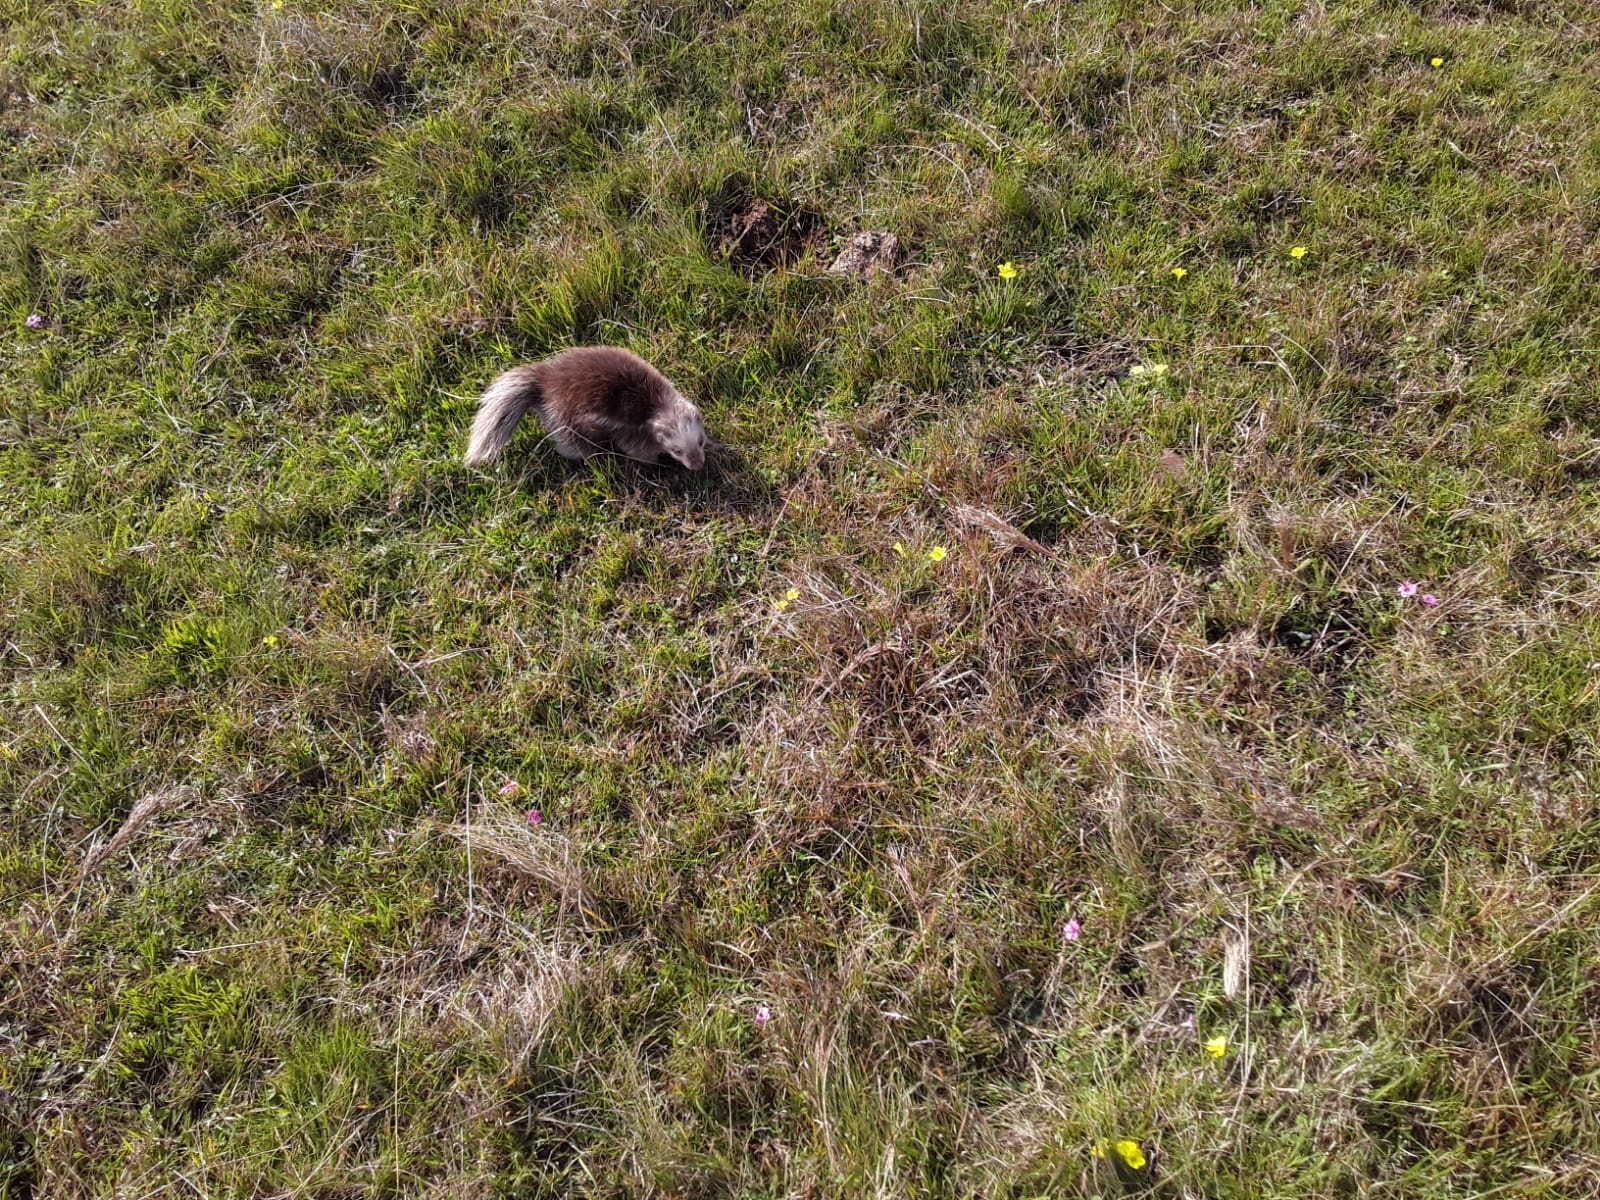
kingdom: Animalia
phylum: Chordata
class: Mammalia
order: Carnivora
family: Mephitidae
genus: Conepatus
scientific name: Conepatus chinga
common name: Molina's hog-nosed skunk
